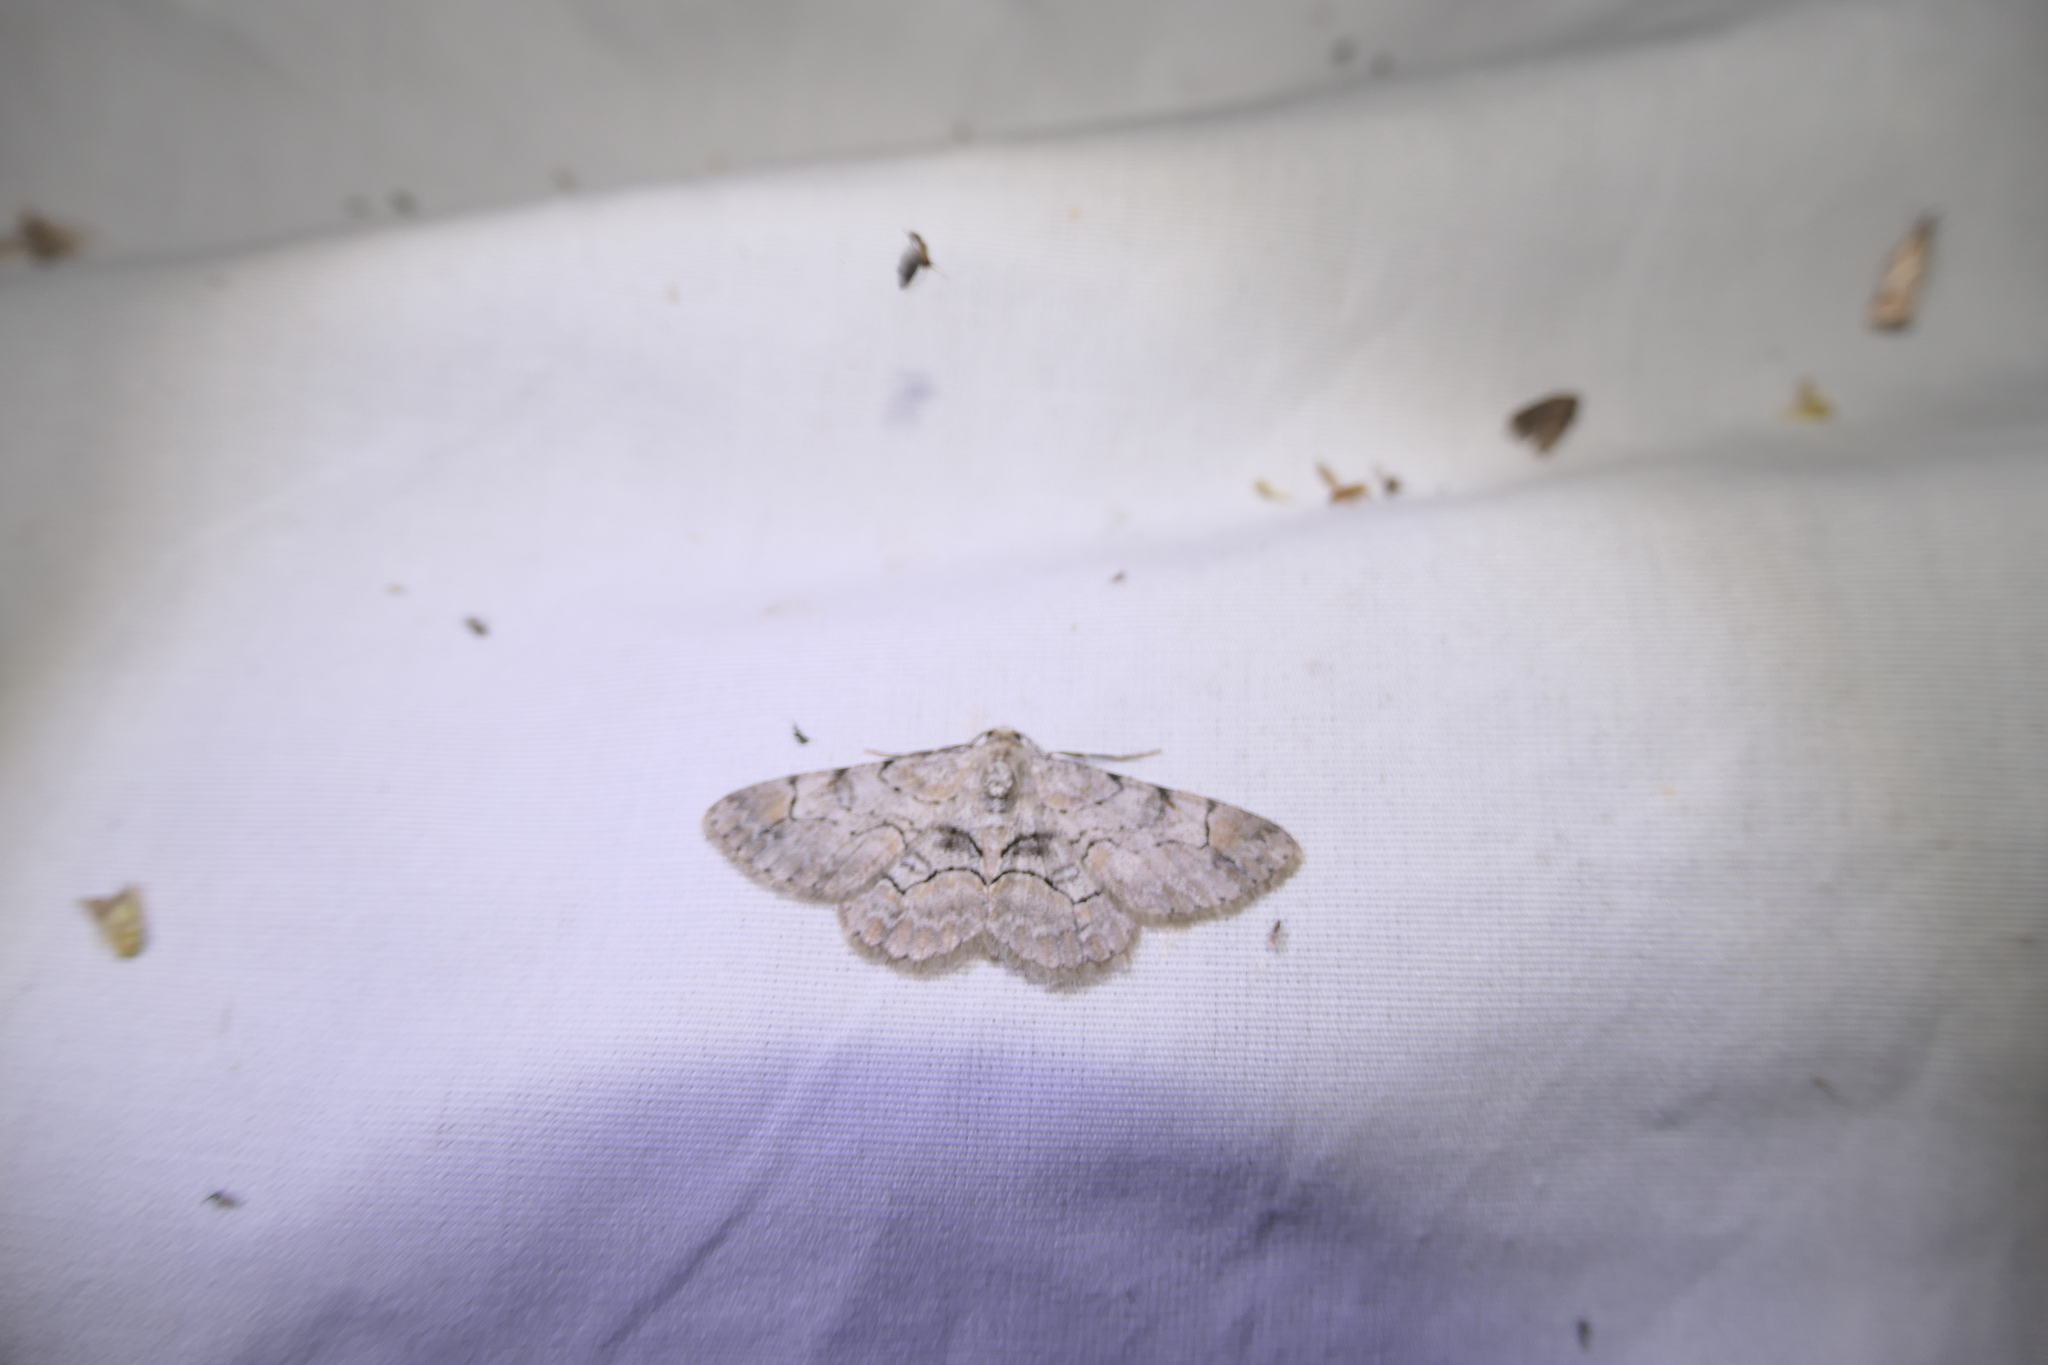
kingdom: Animalia
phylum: Arthropoda
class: Insecta
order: Lepidoptera
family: Geometridae
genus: Iridopsis
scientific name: Iridopsis larvaria
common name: Bent-line gray
